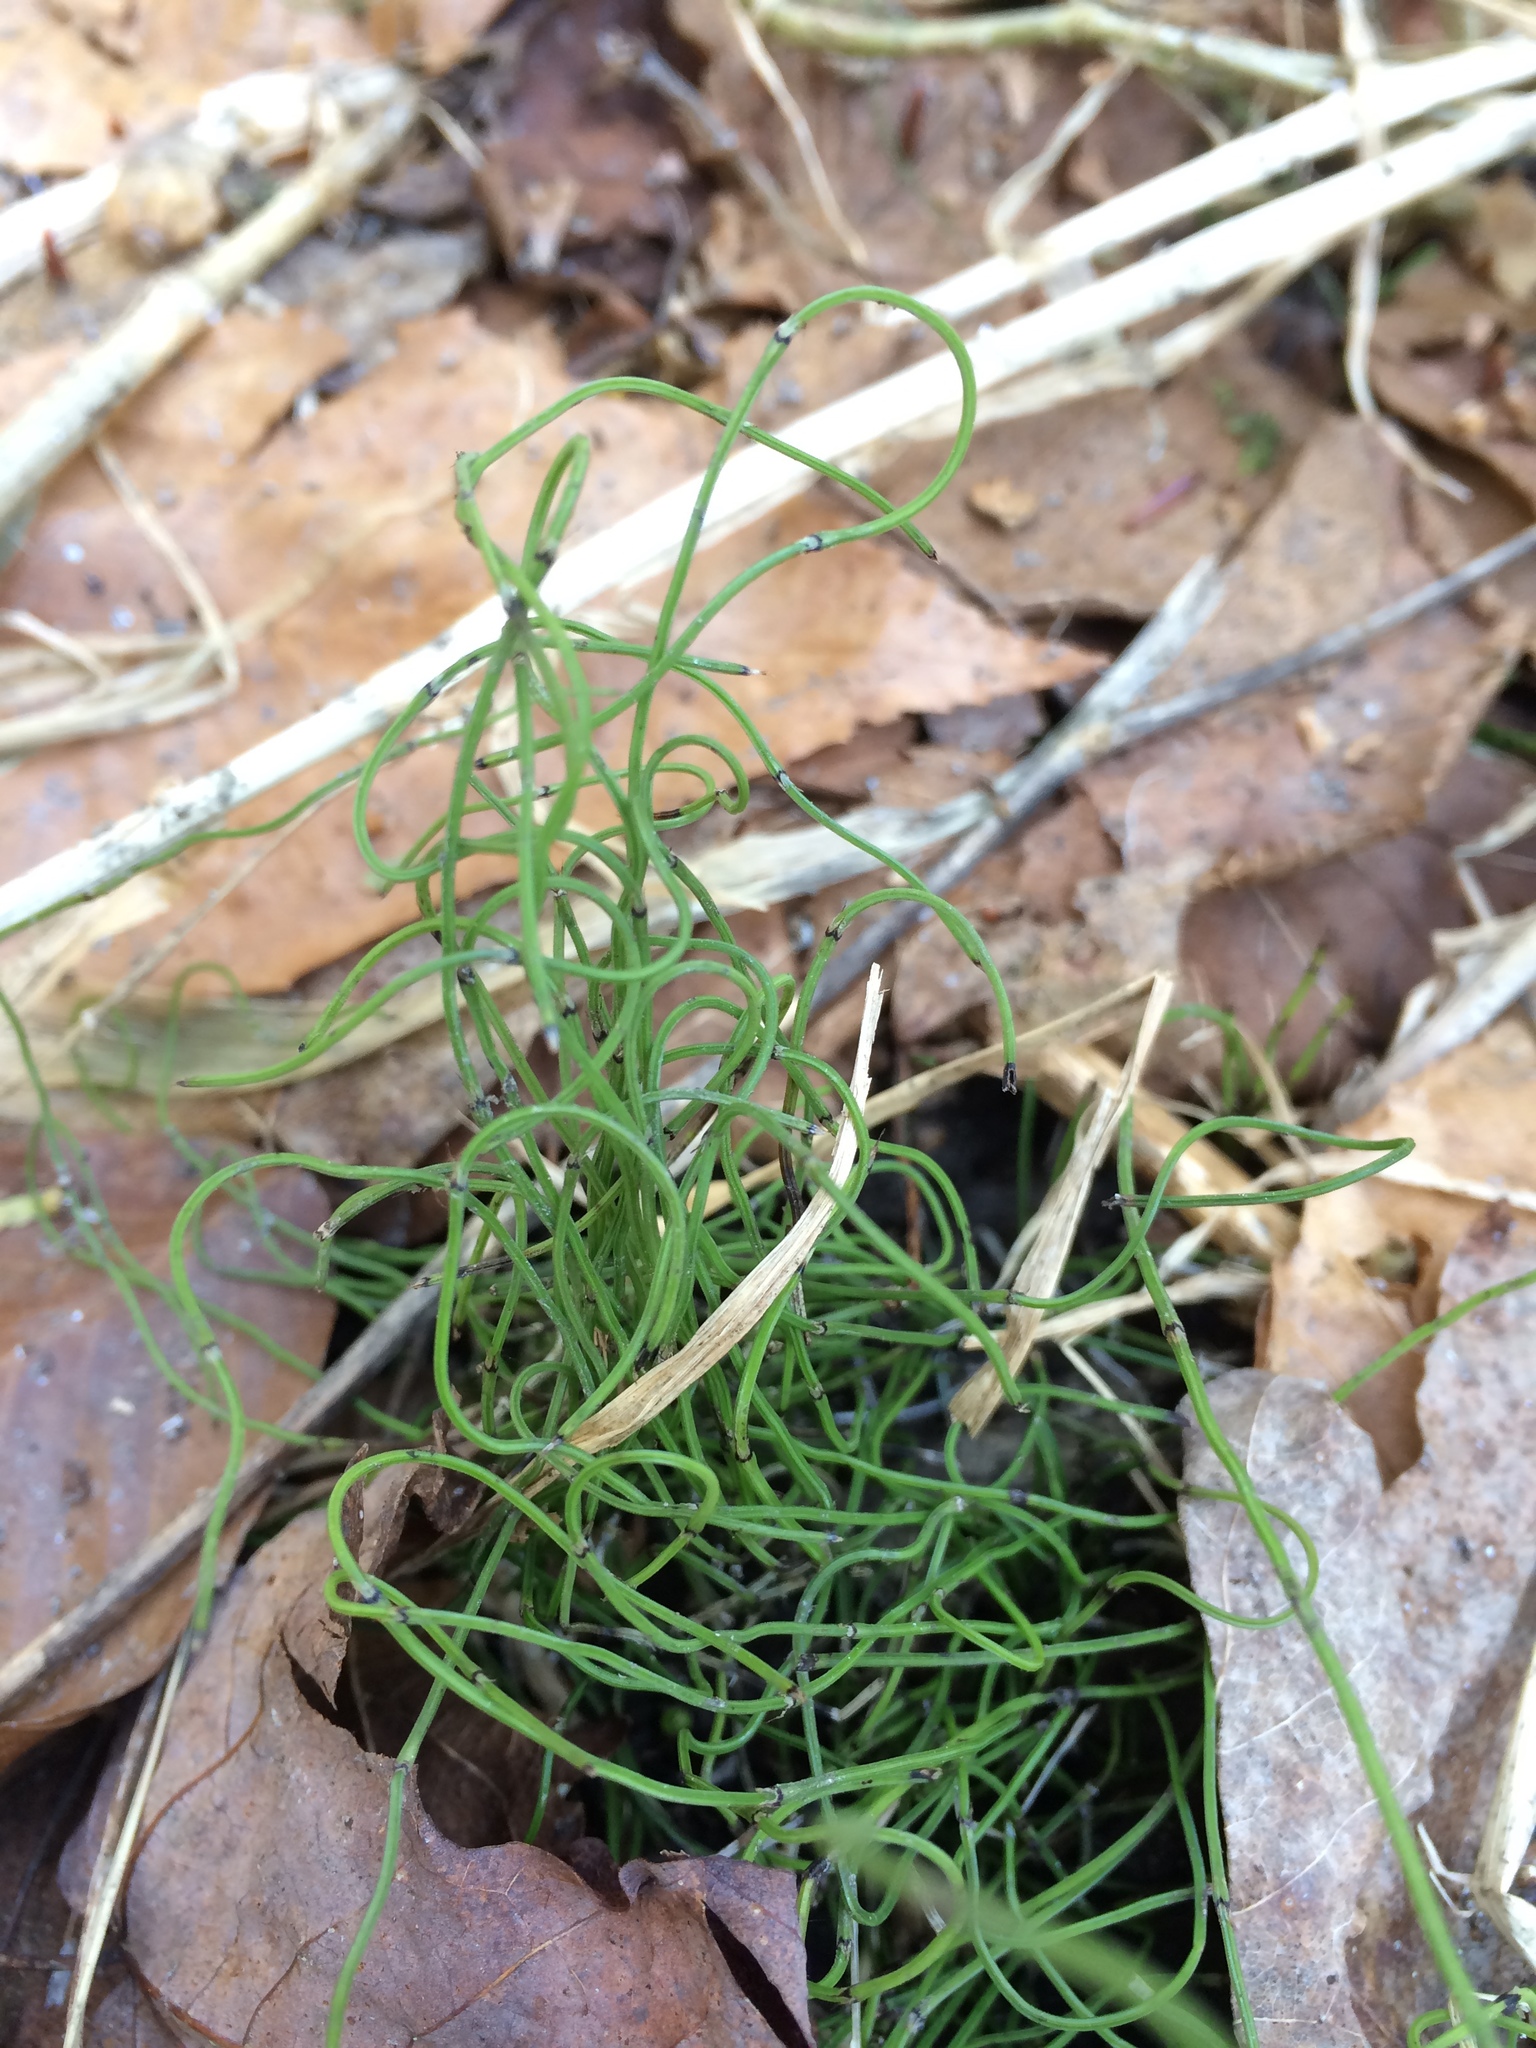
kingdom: Plantae
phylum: Tracheophyta
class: Polypodiopsida
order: Equisetales
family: Equisetaceae
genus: Equisetum
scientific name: Equisetum scirpoides
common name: Delicate horsetail
